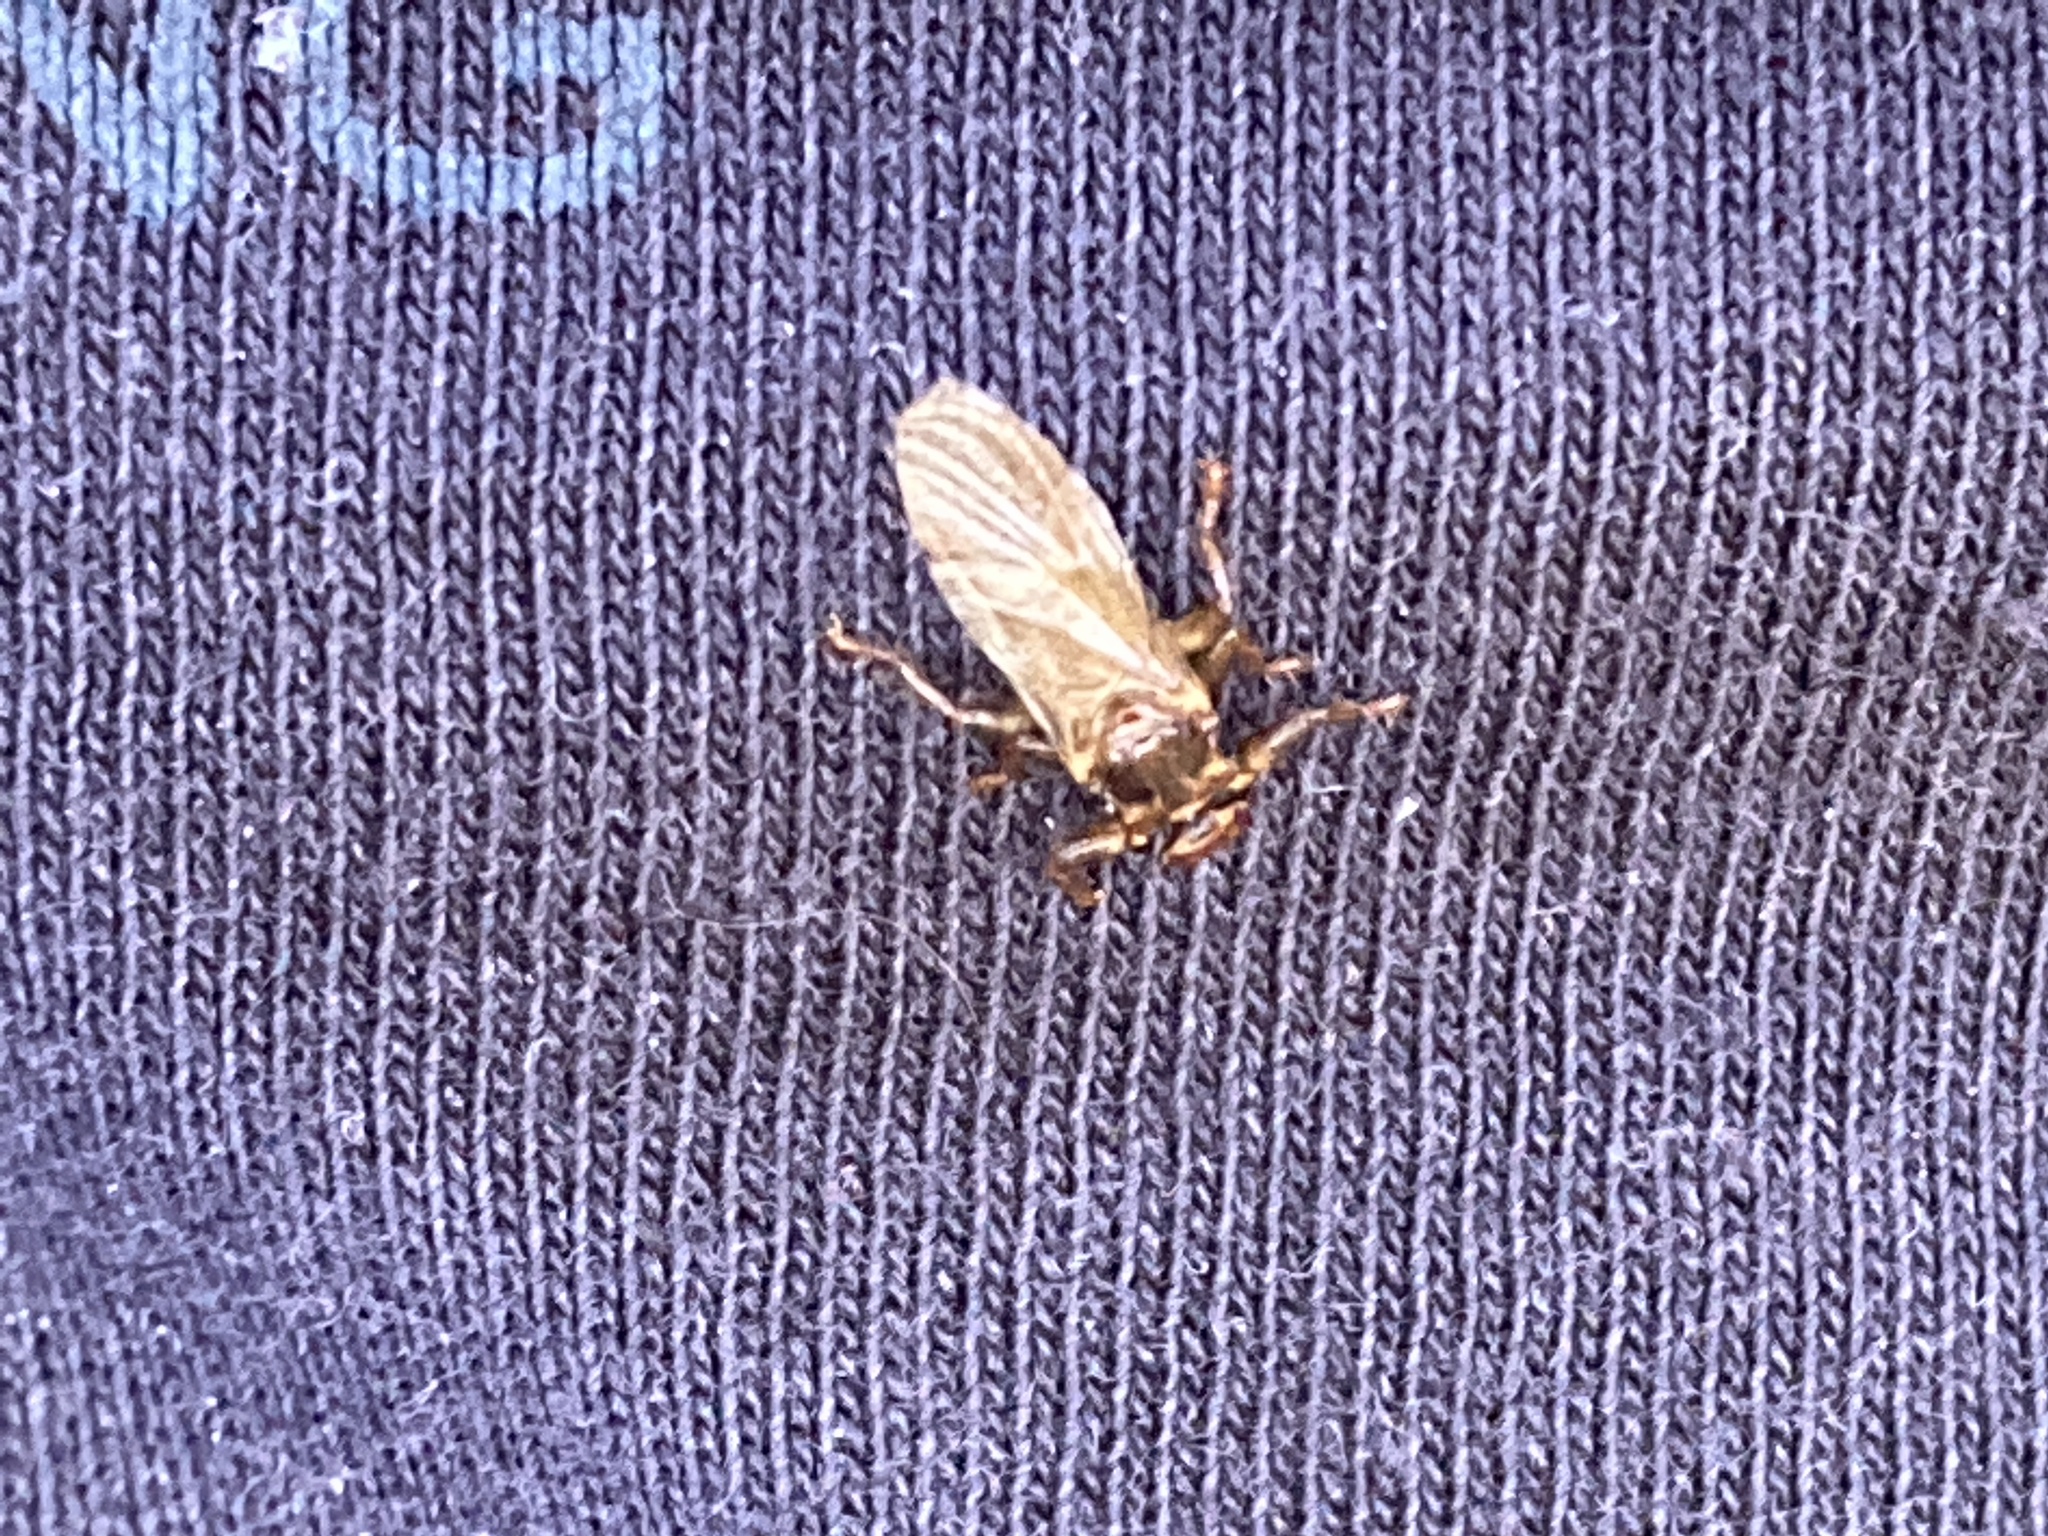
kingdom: Animalia
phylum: Arthropoda
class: Insecta
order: Diptera
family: Hippoboscidae
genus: Lipoptena
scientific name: Lipoptena cervi
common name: Deer ked
